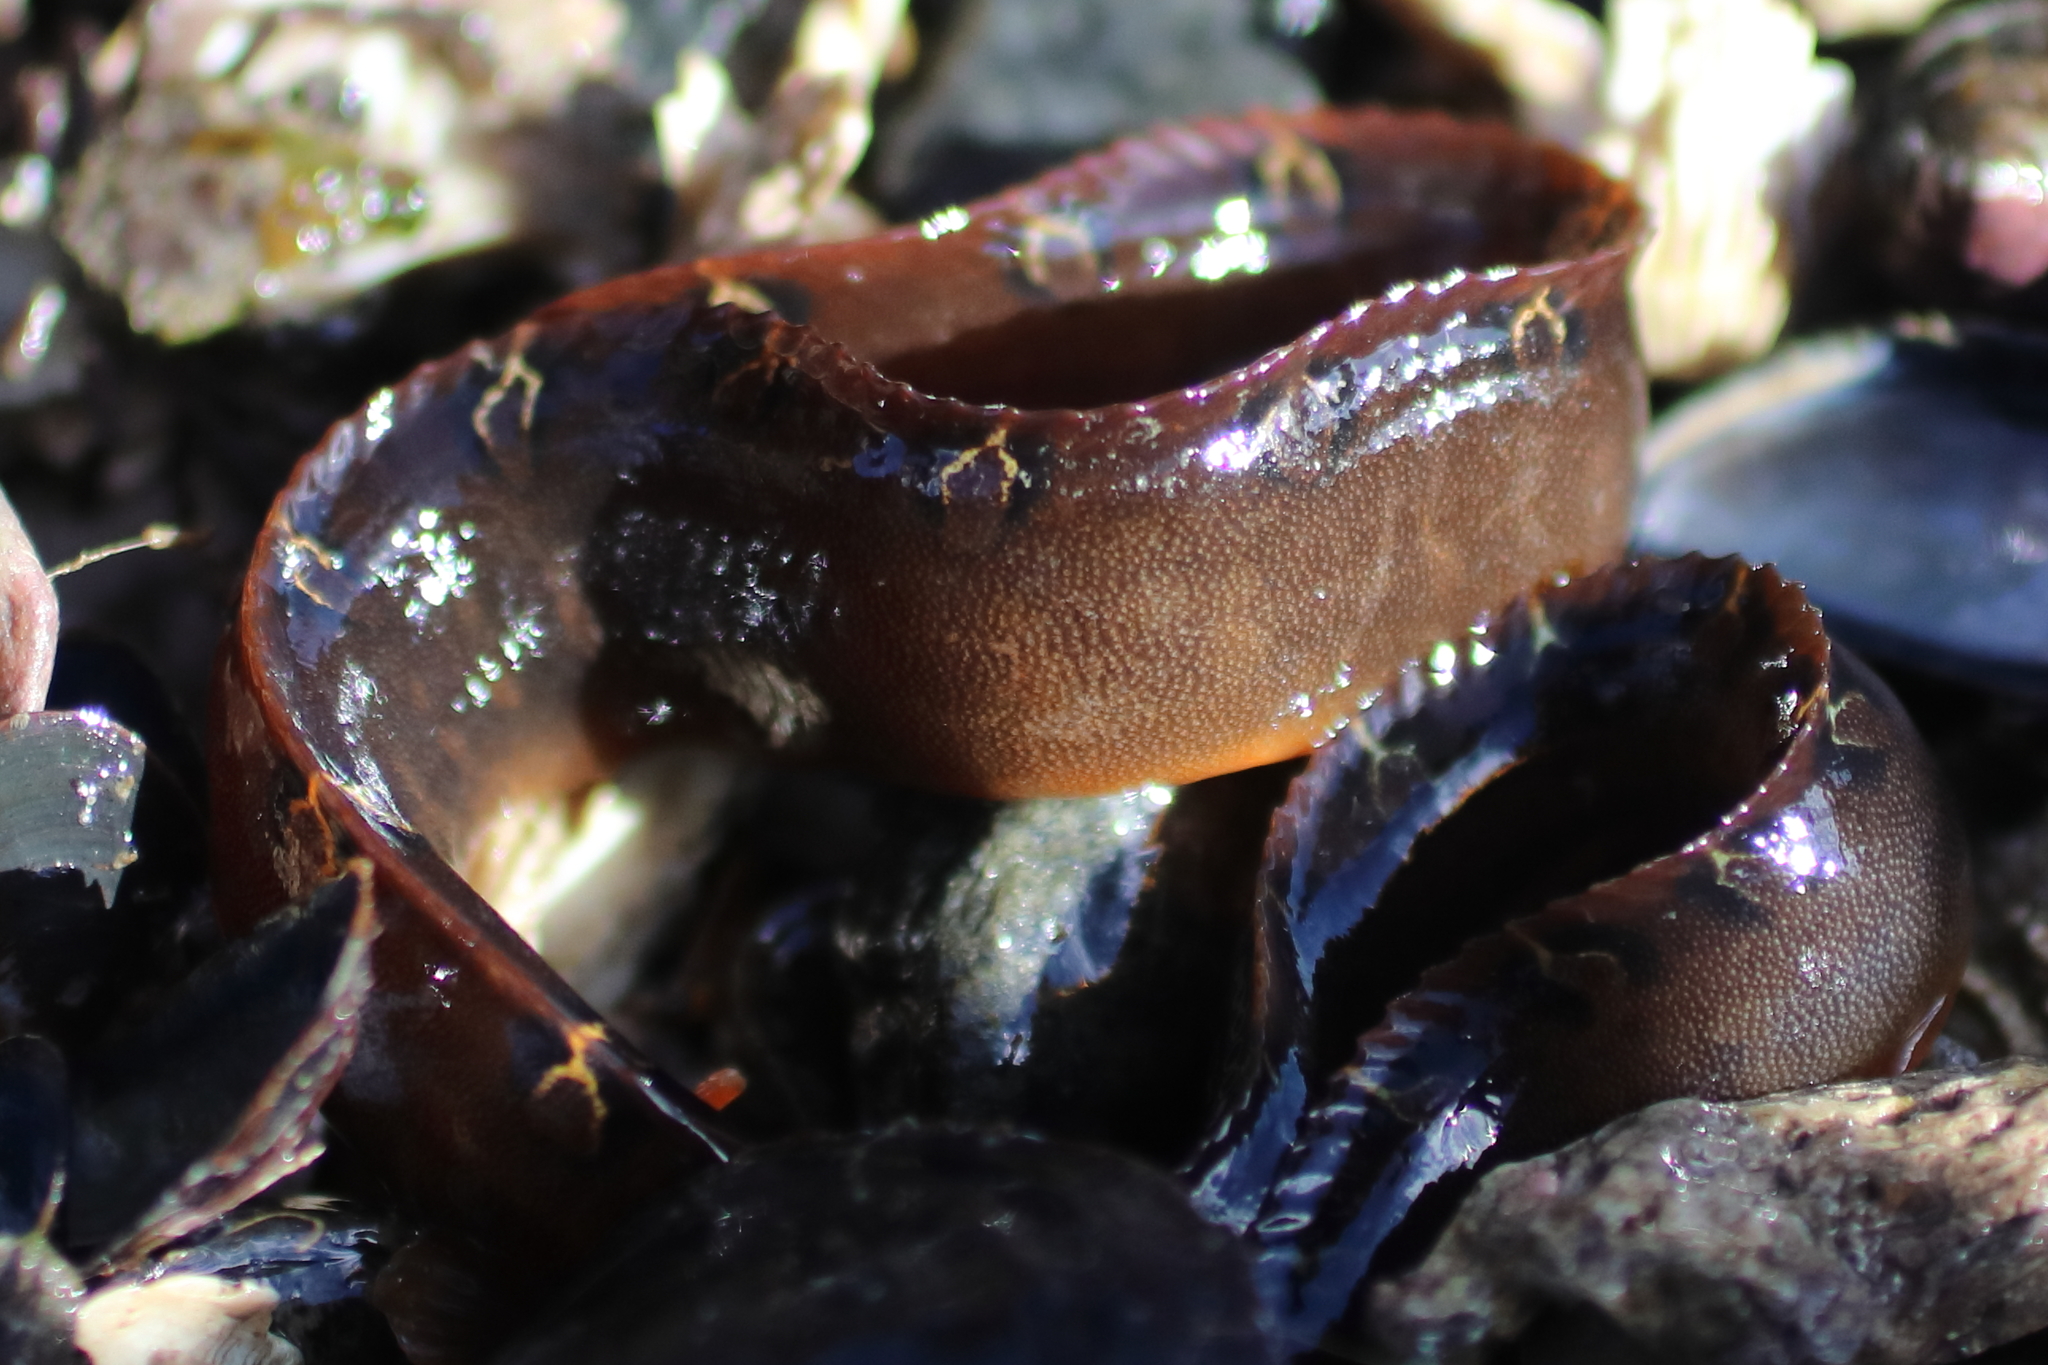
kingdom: Animalia
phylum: Chordata
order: Perciformes
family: Pholidae
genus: Pholis
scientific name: Pholis laeta
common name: Crescent gunnel
